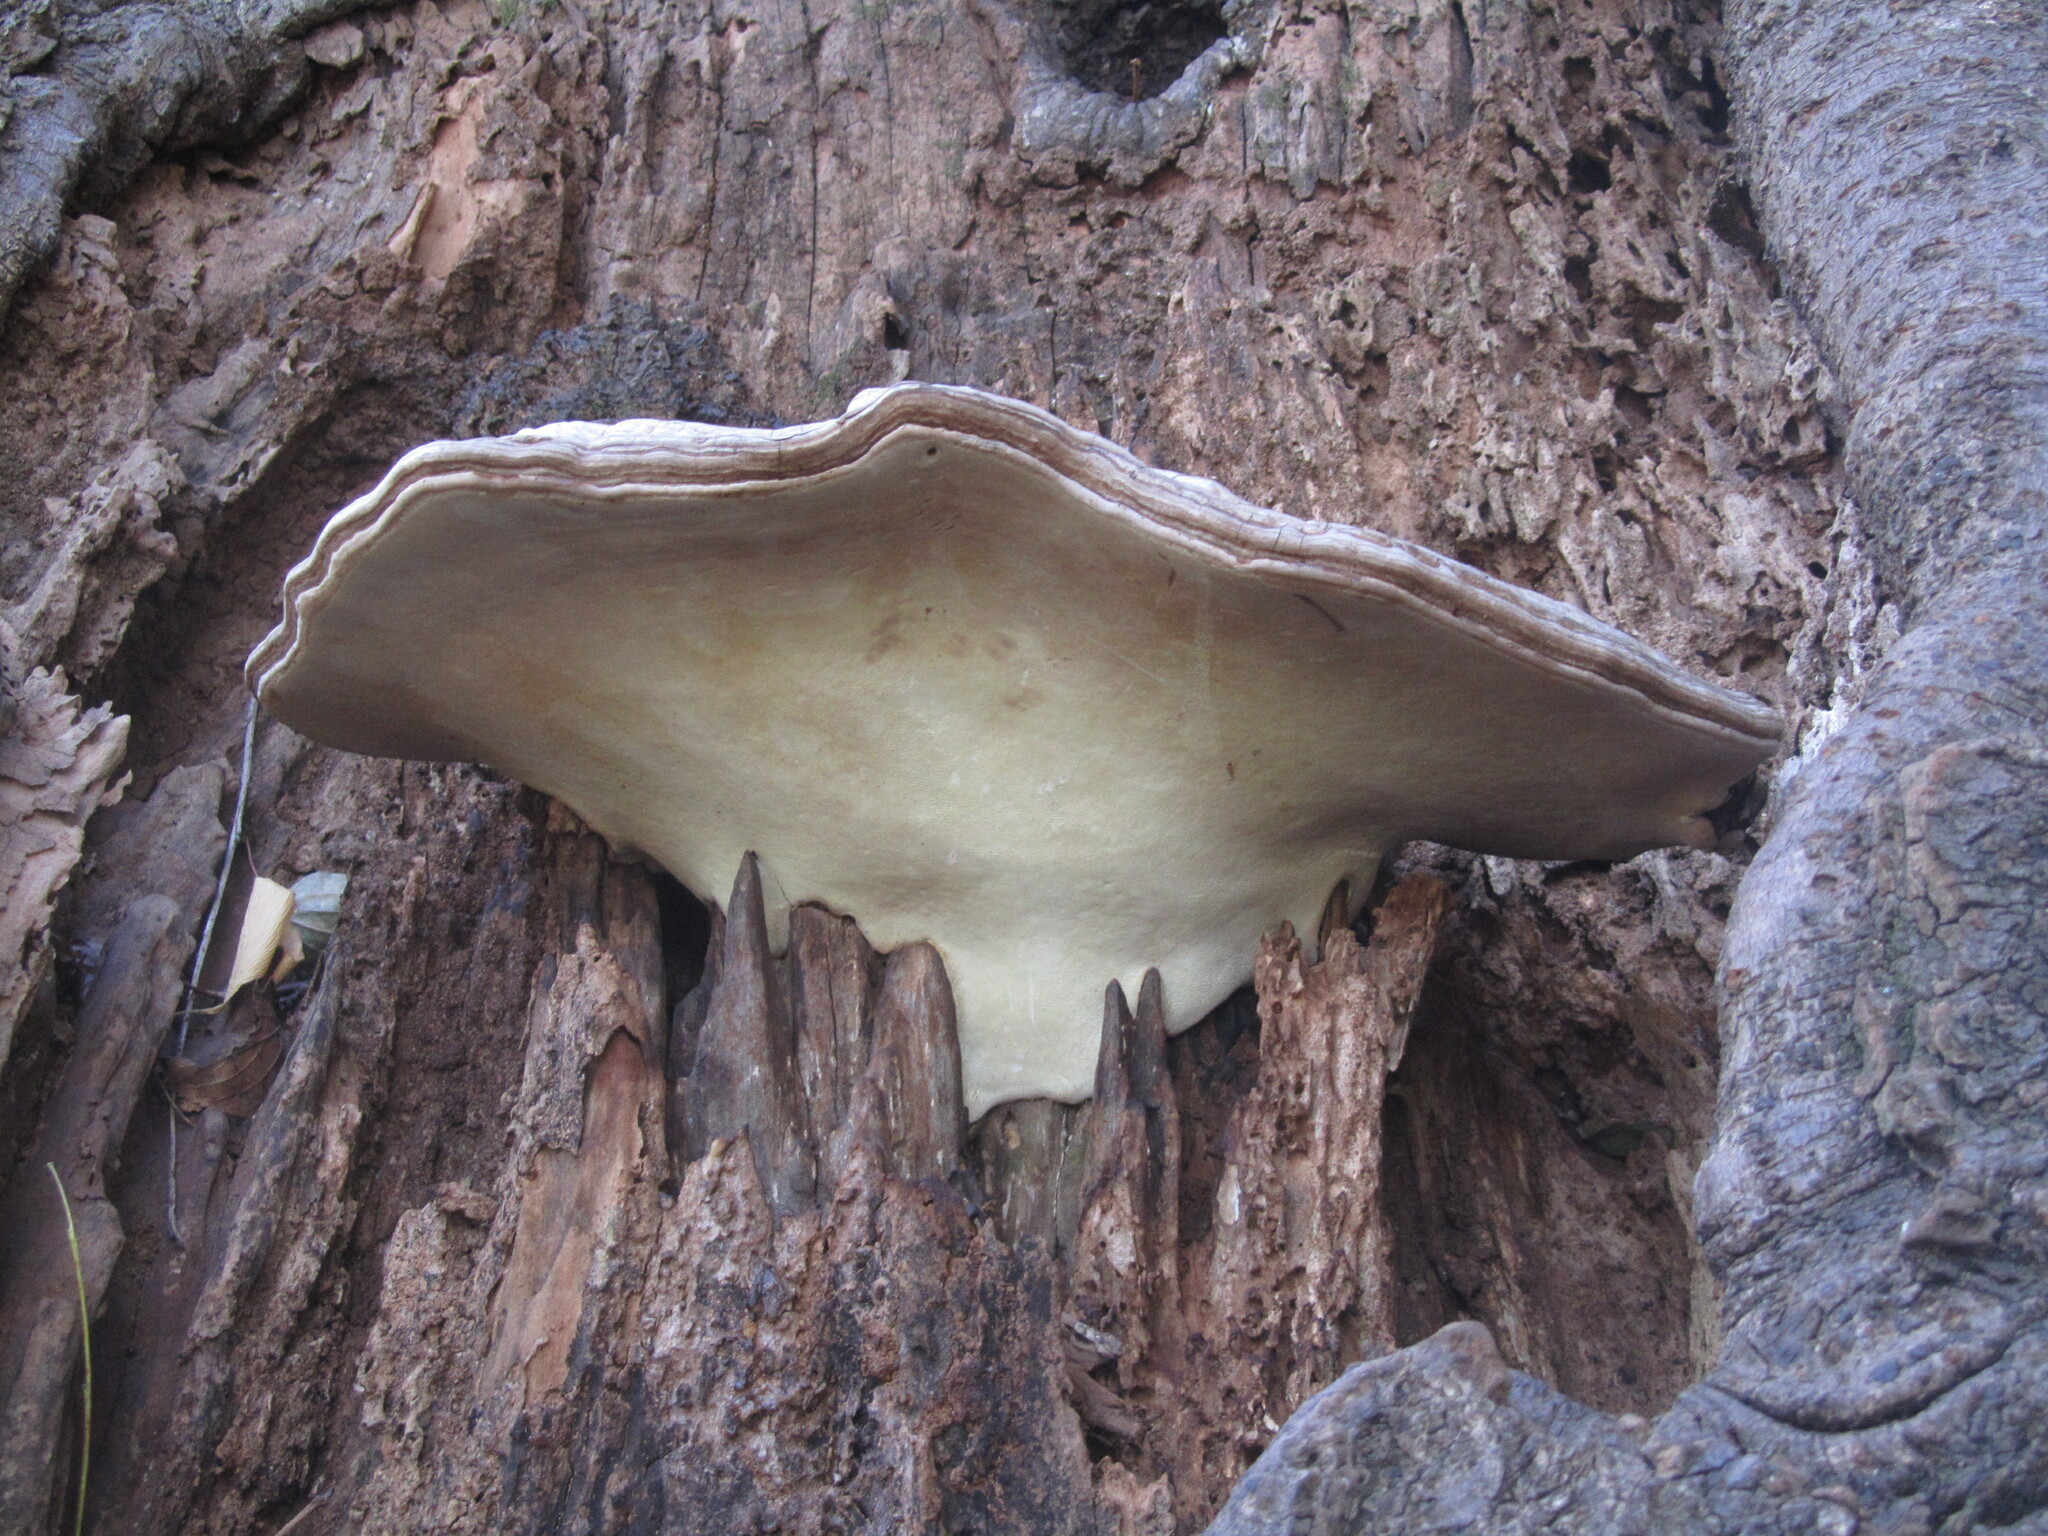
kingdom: Fungi
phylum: Basidiomycota
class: Agaricomycetes
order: Polyporales
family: Polyporaceae
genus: Ganoderma
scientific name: Ganoderma applanatum
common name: Artist's bracket
